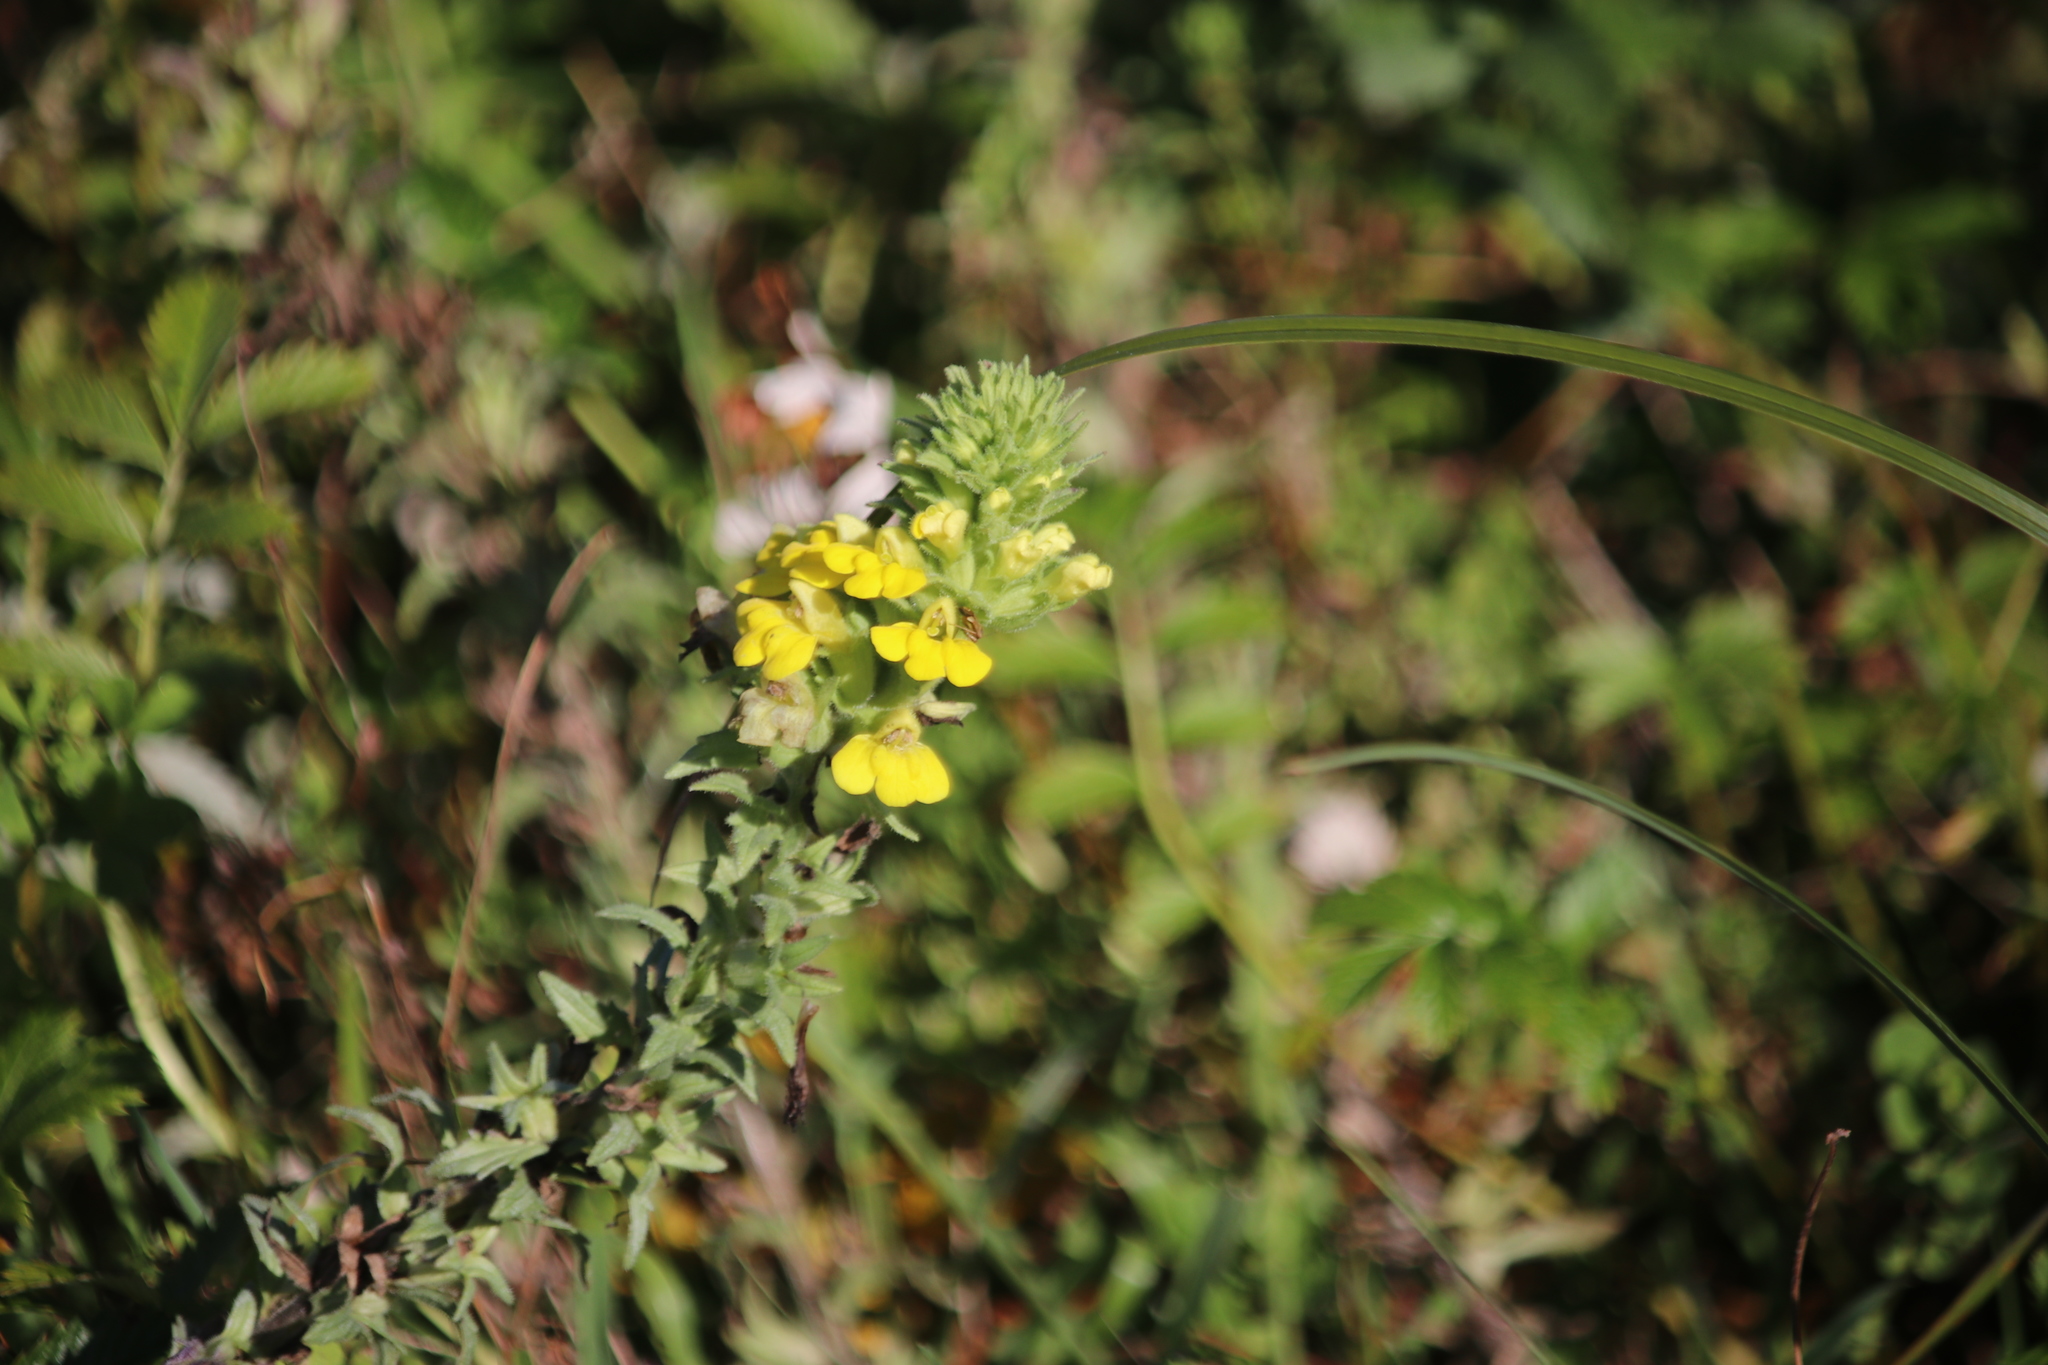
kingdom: Plantae
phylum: Tracheophyta
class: Magnoliopsida
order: Lamiales
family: Orobanchaceae
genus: Bellardia
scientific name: Bellardia viscosa
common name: Sticky parentucellia
